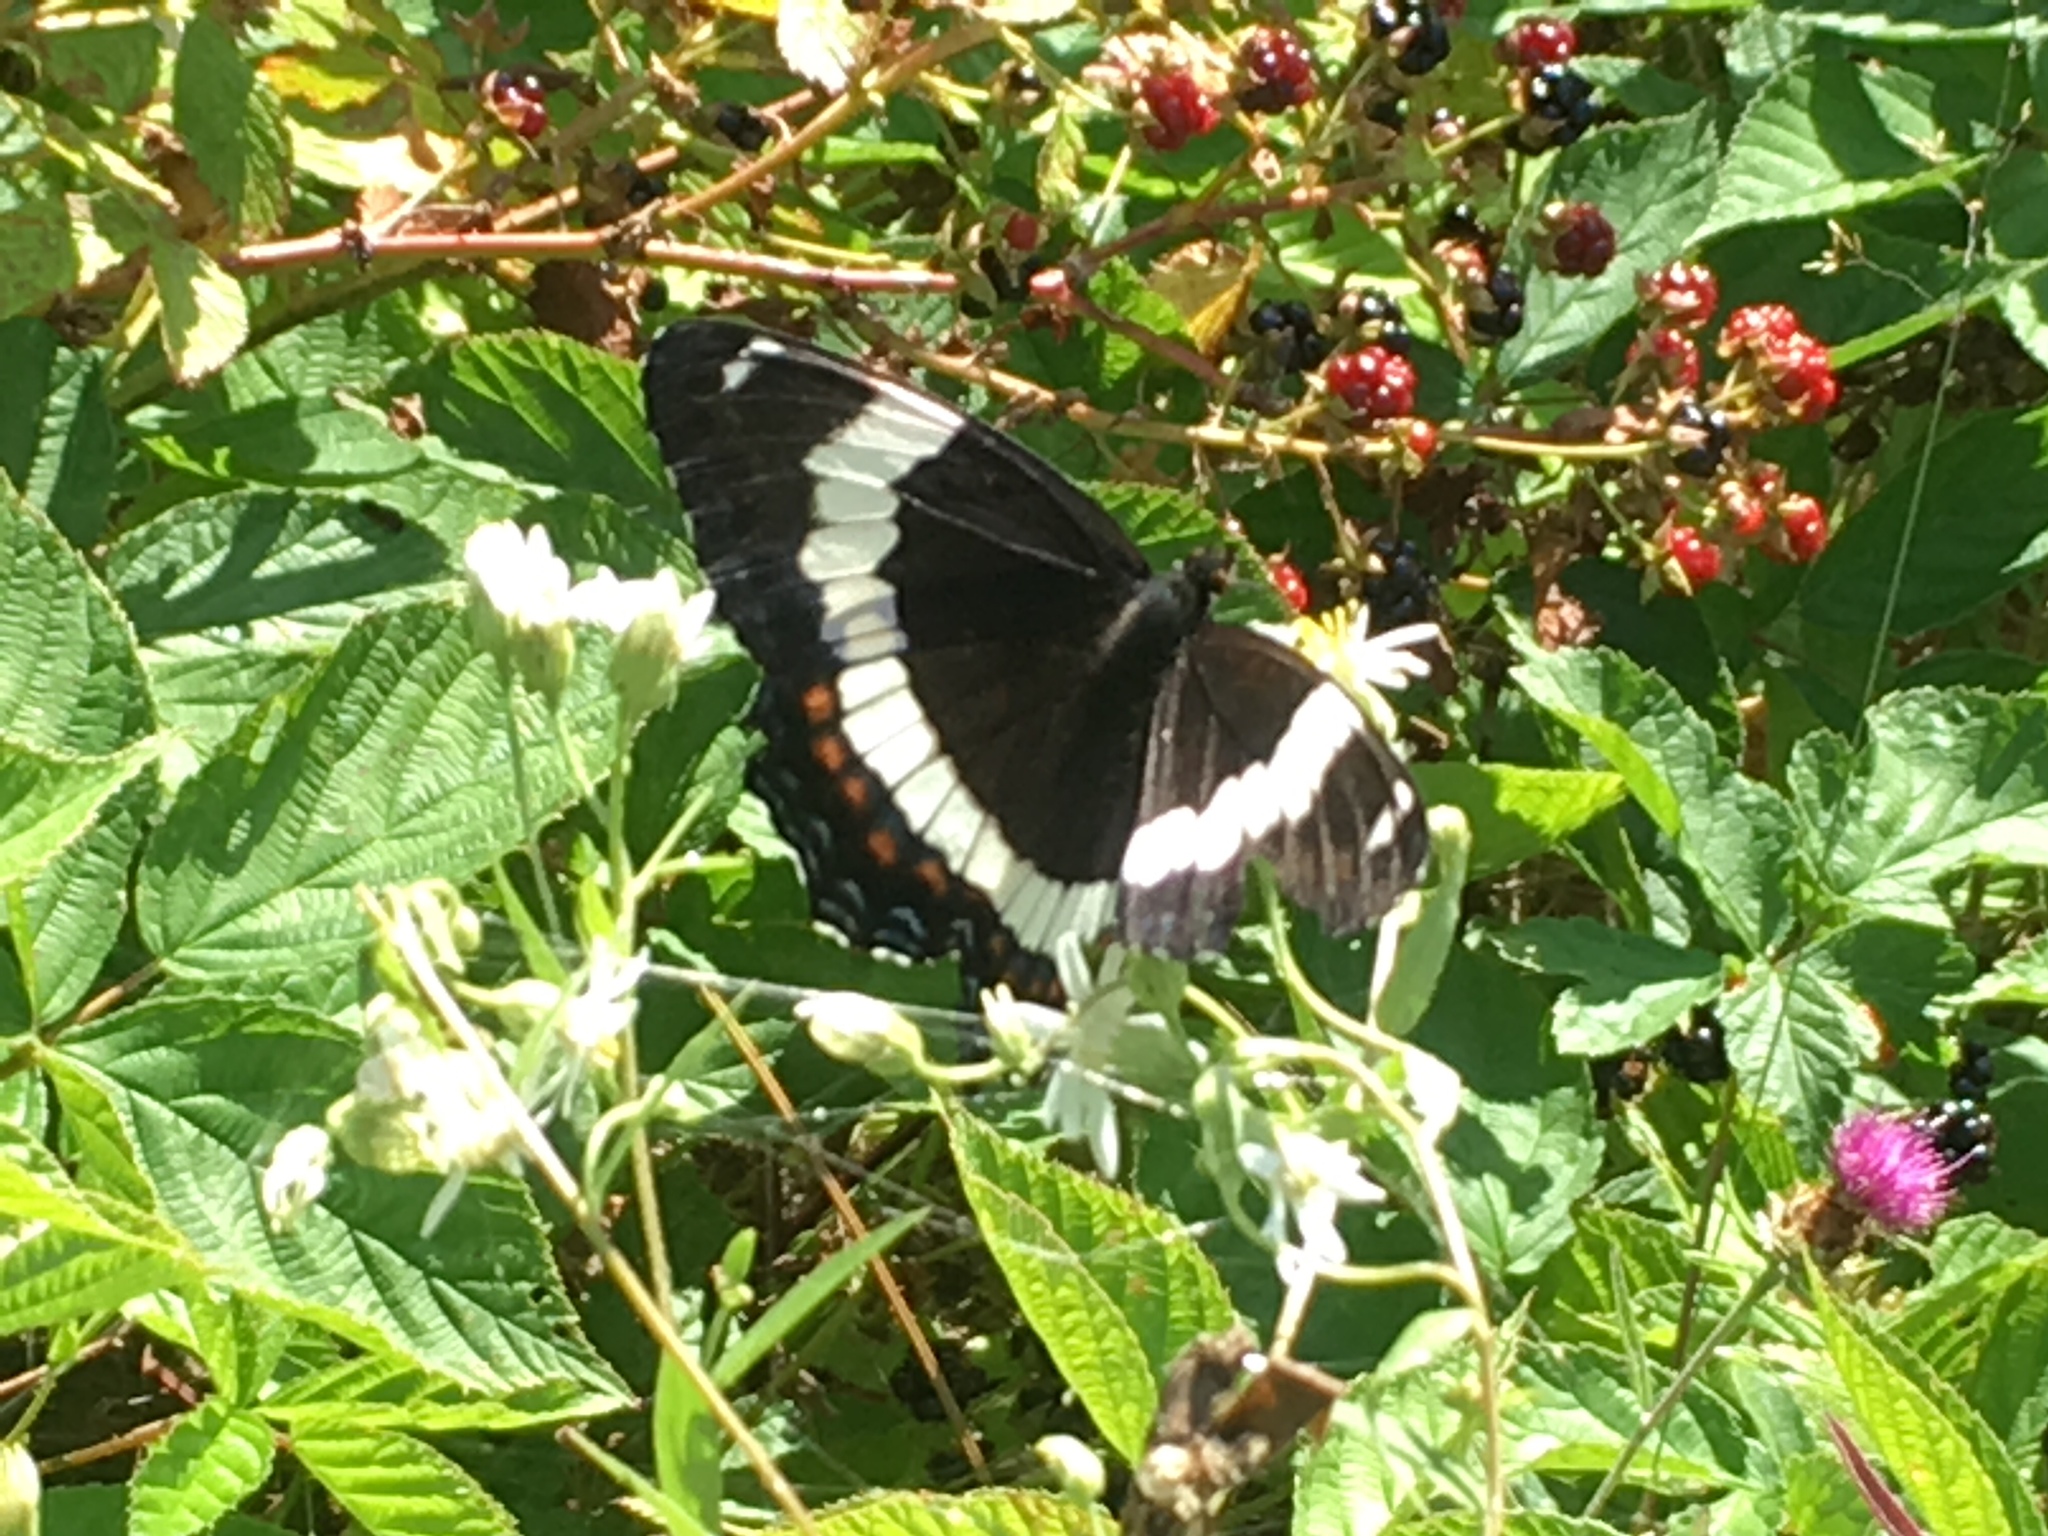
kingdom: Animalia
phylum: Arthropoda
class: Insecta
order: Lepidoptera
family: Nymphalidae
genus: Limenitis
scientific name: Limenitis arthemis
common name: Red-spotted admiral
